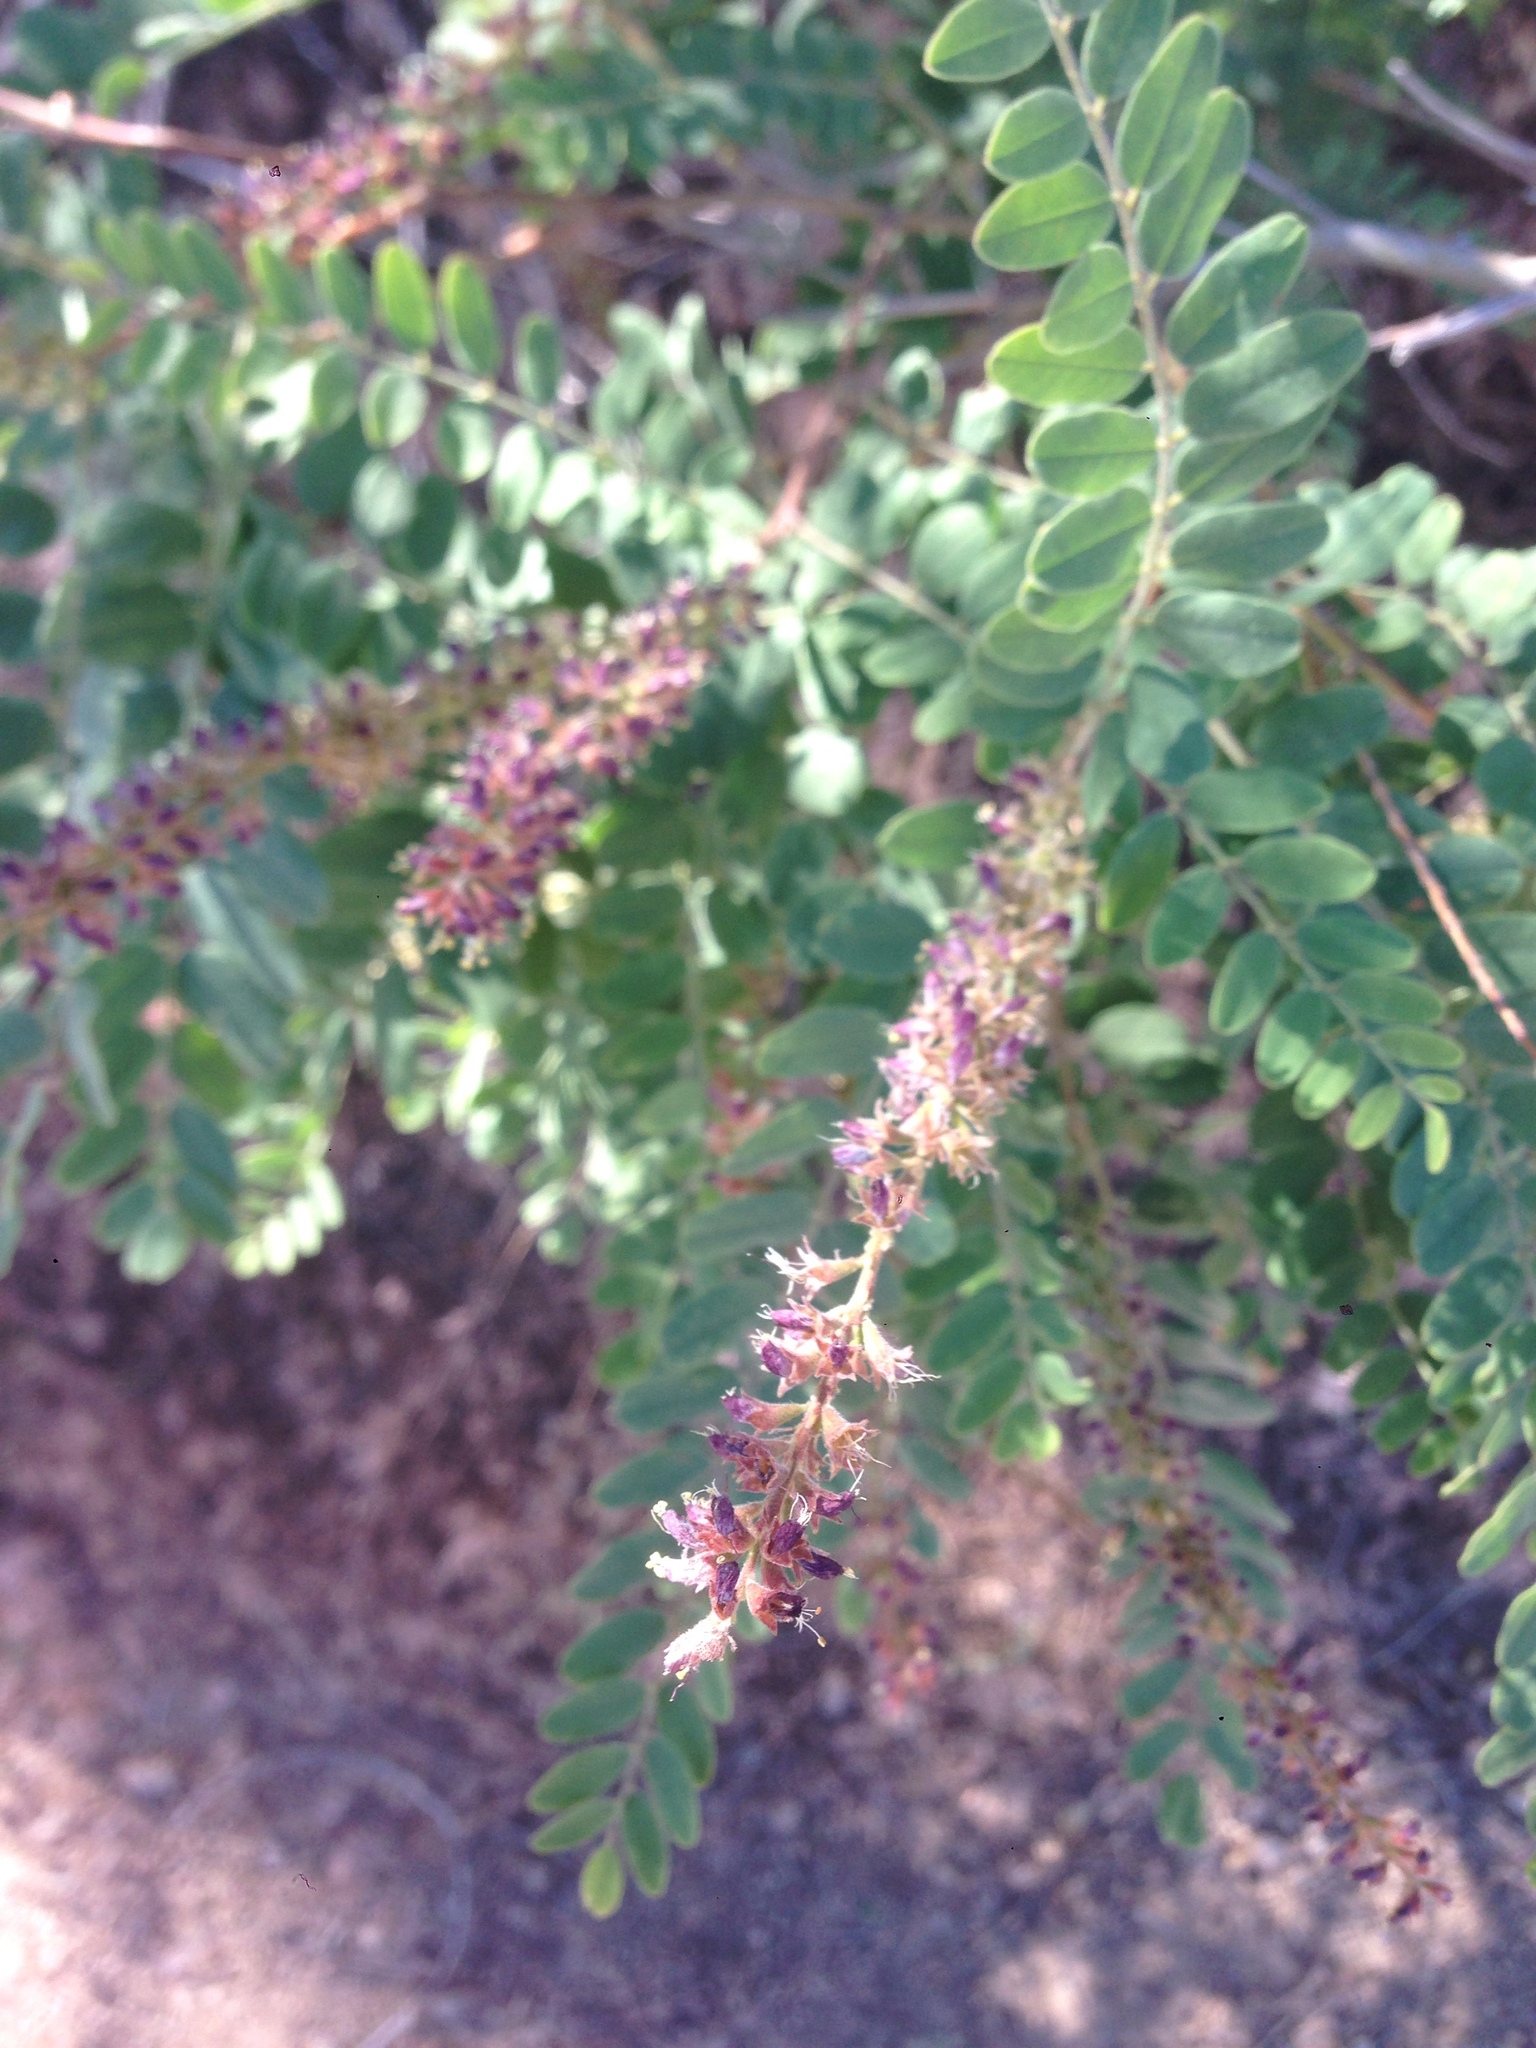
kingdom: Plantae
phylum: Tracheophyta
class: Magnoliopsida
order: Fabales
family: Fabaceae
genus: Amorpha
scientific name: Amorpha californica
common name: California indigobush
